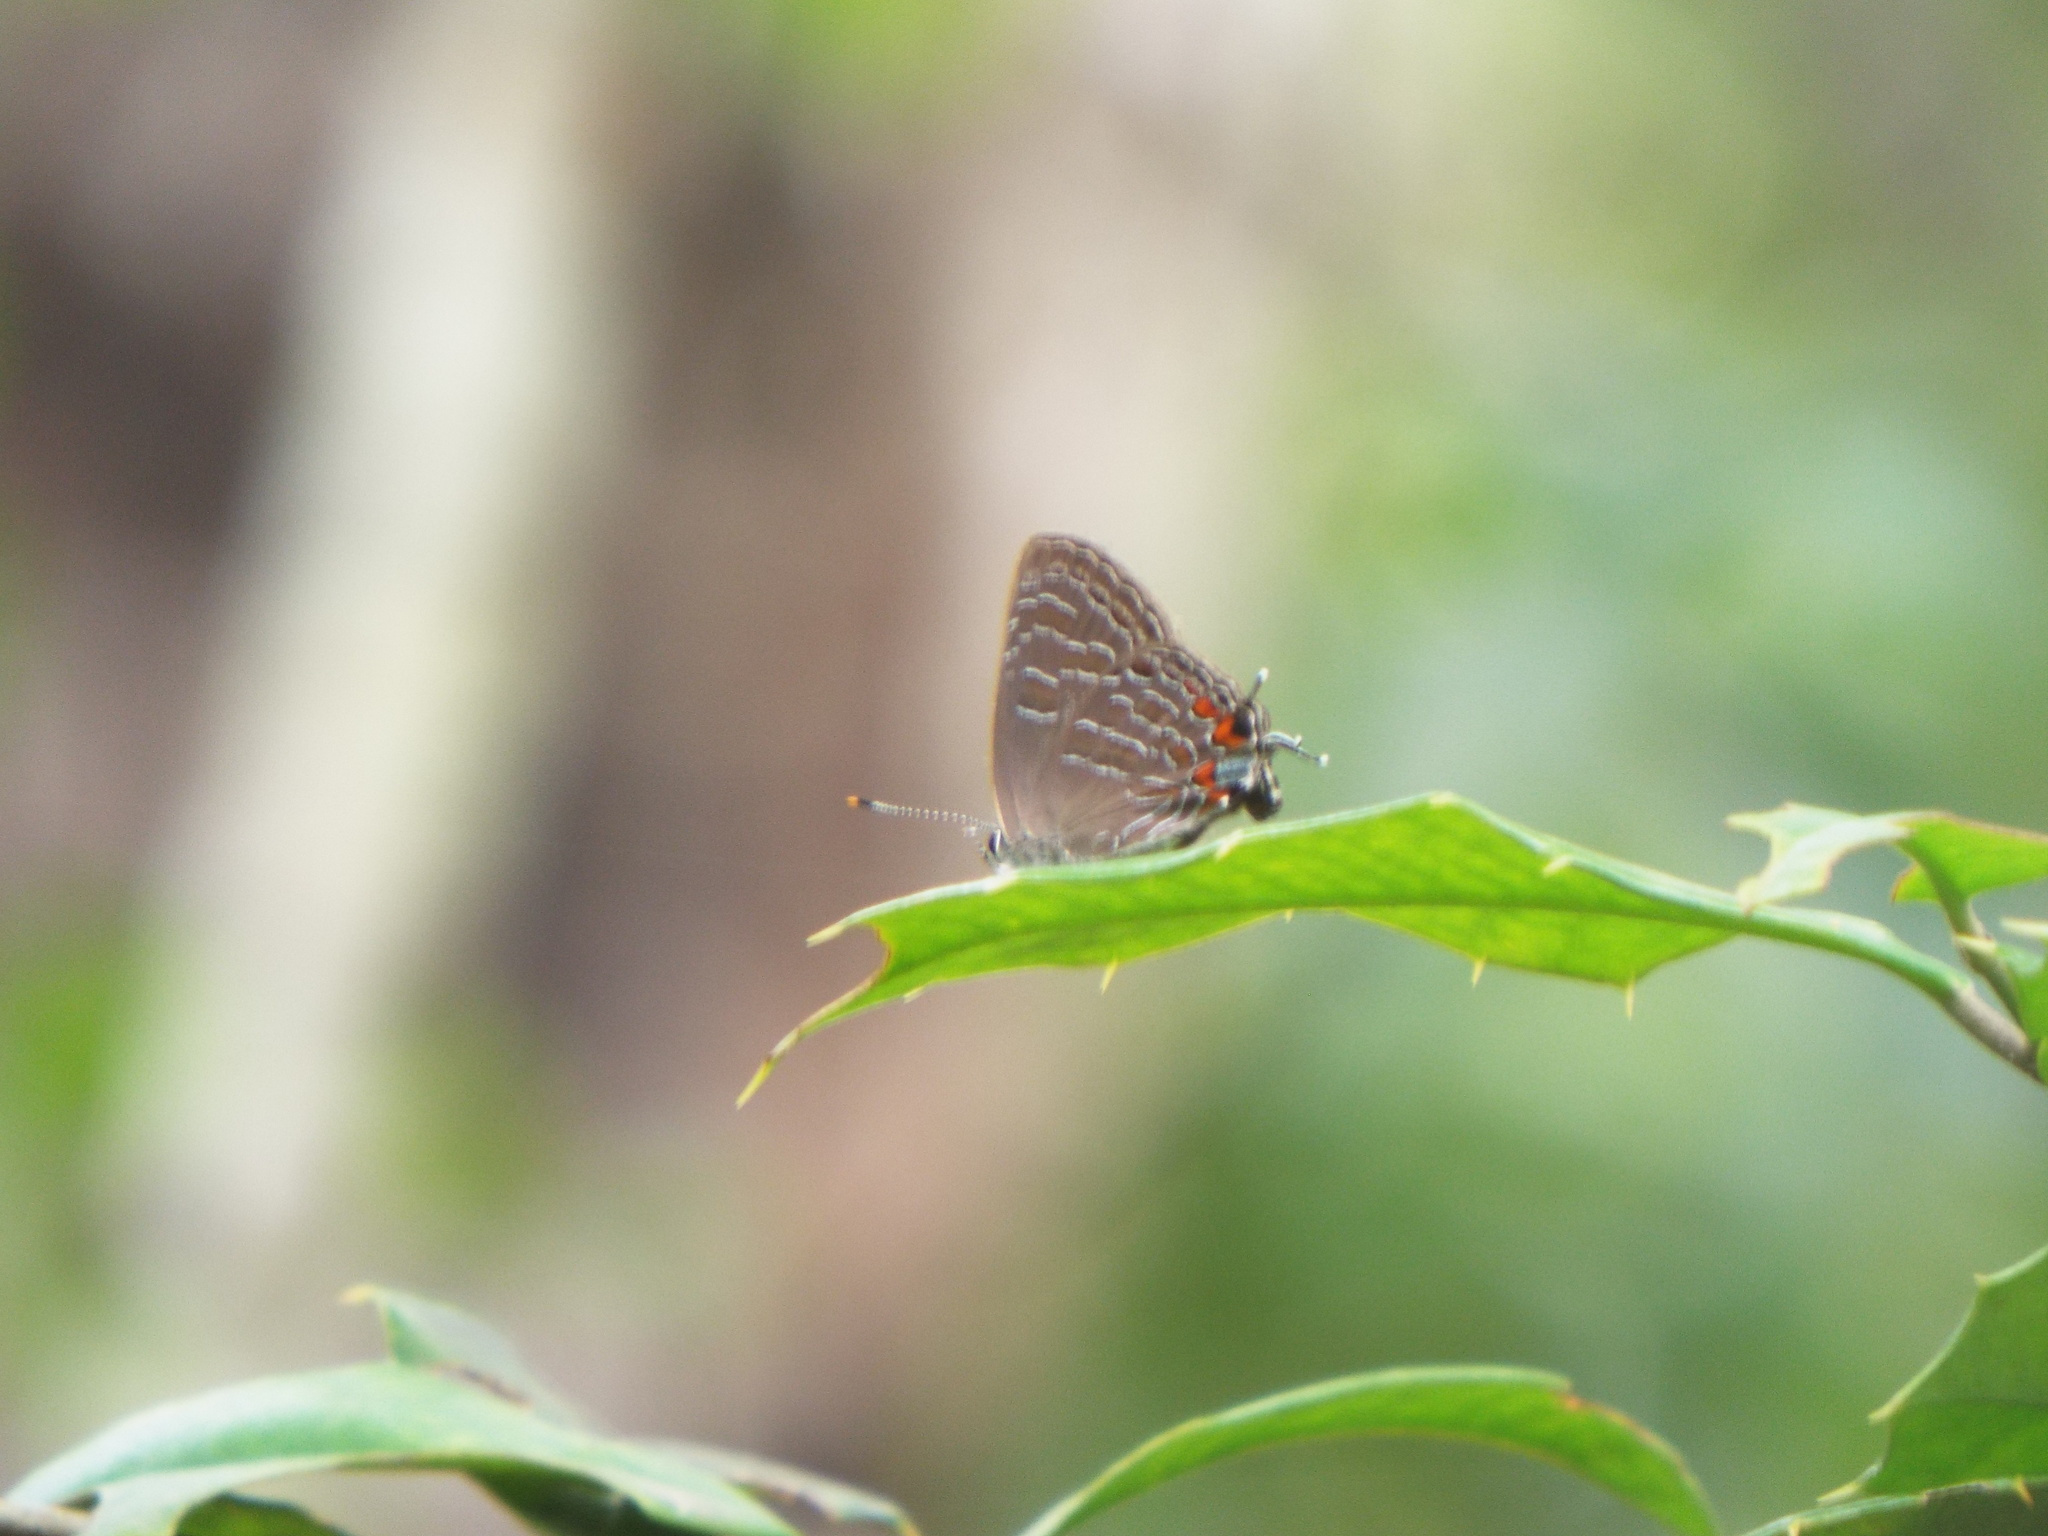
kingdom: Animalia
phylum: Arthropoda
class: Insecta
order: Lepidoptera
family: Lycaenidae
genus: Satyrium
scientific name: Satyrium liparops
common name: Striped hairstreak
